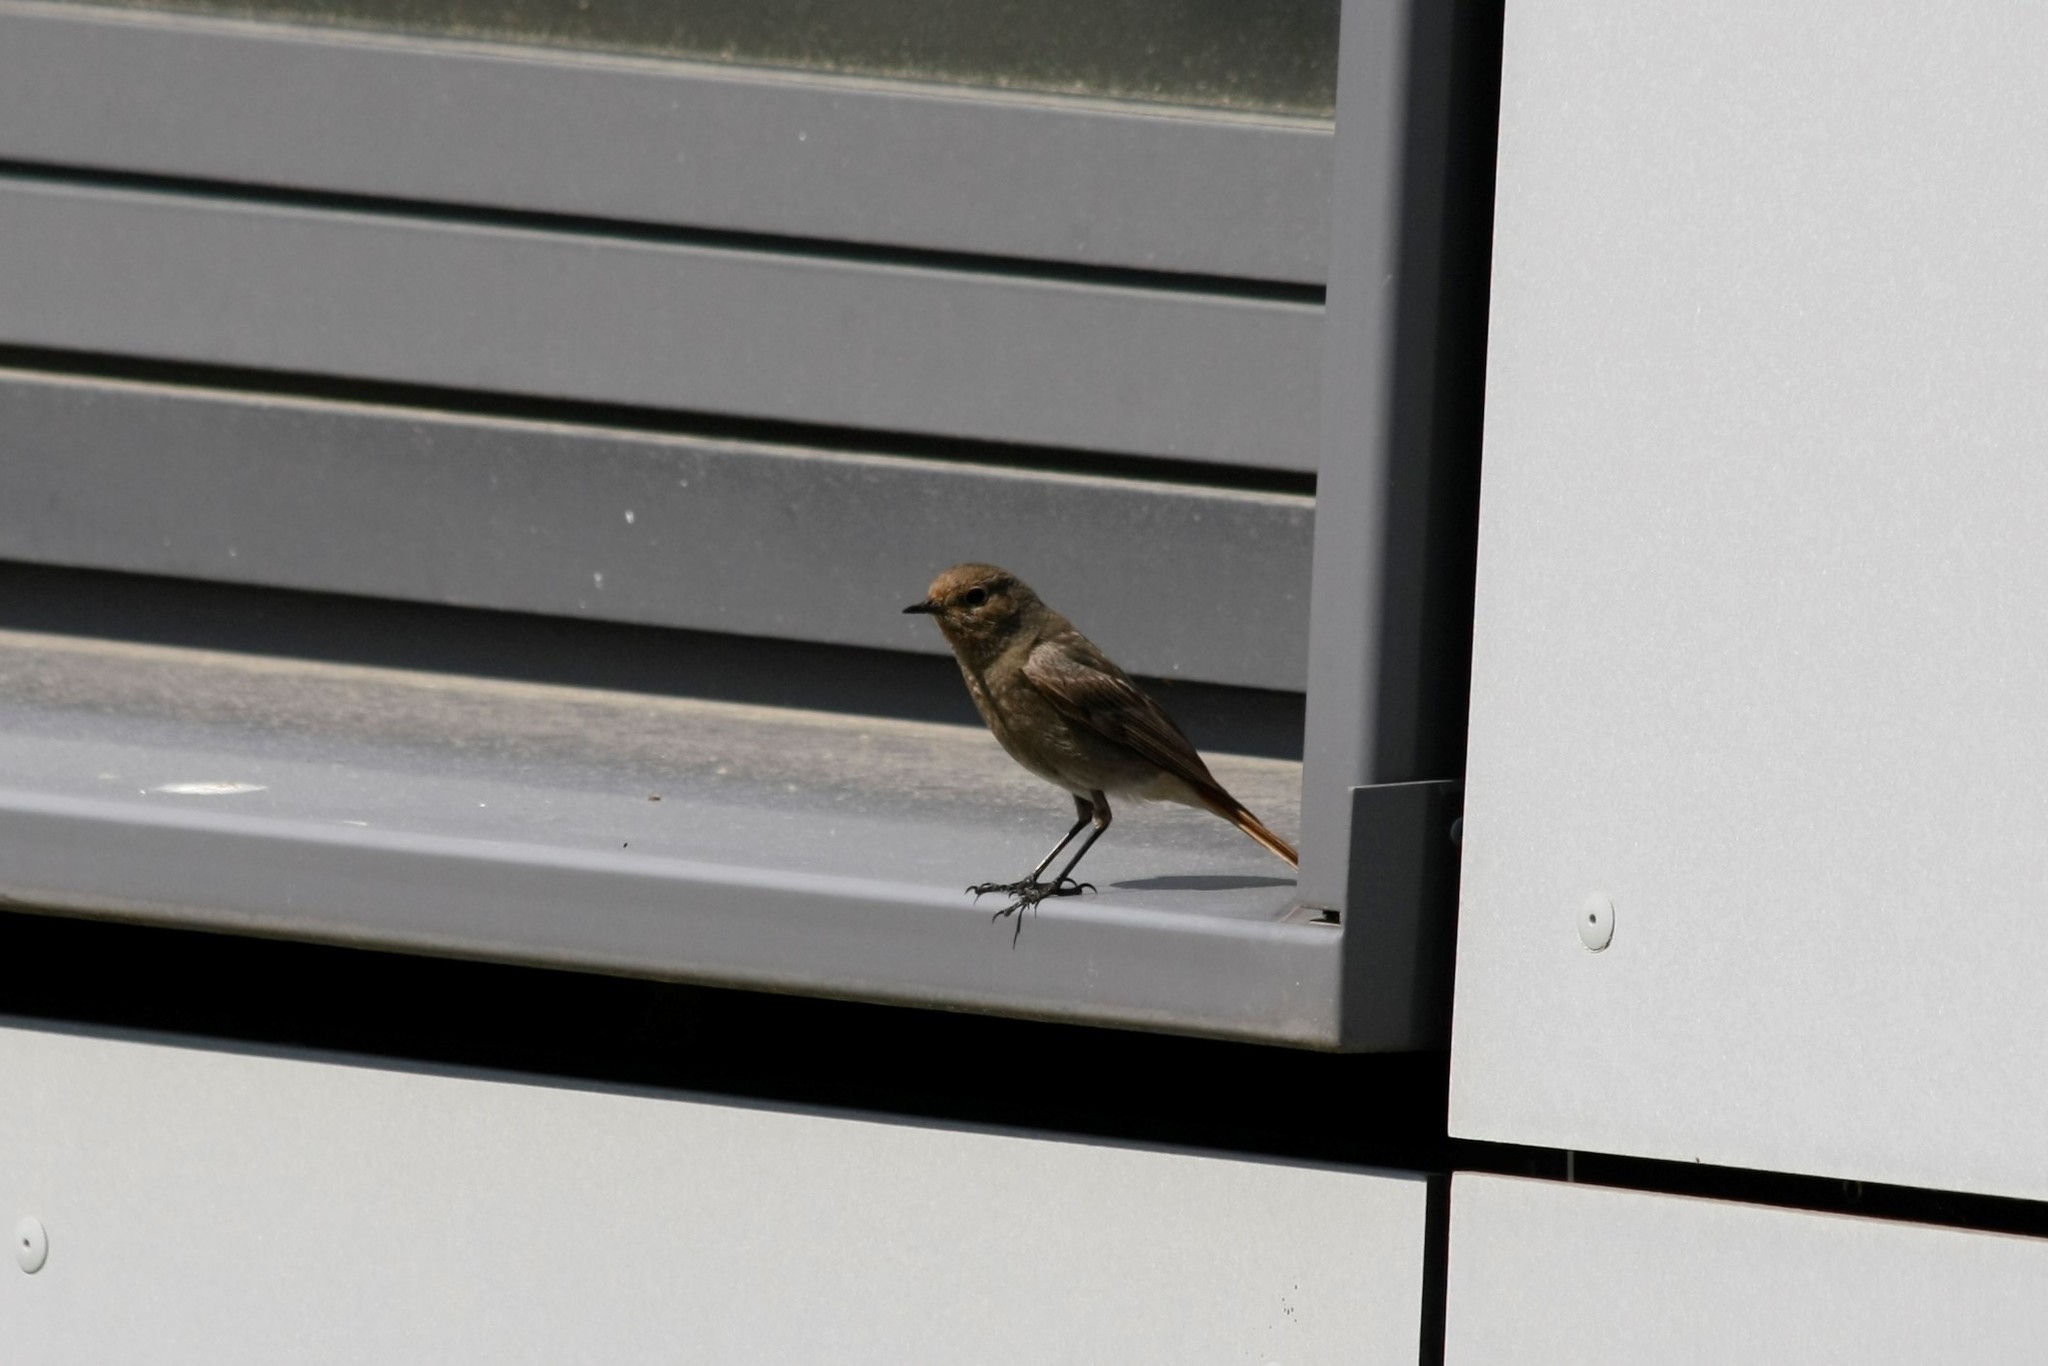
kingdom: Animalia
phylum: Chordata
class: Aves
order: Passeriformes
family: Muscicapidae
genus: Phoenicurus
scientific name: Phoenicurus ochruros
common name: Black redstart
